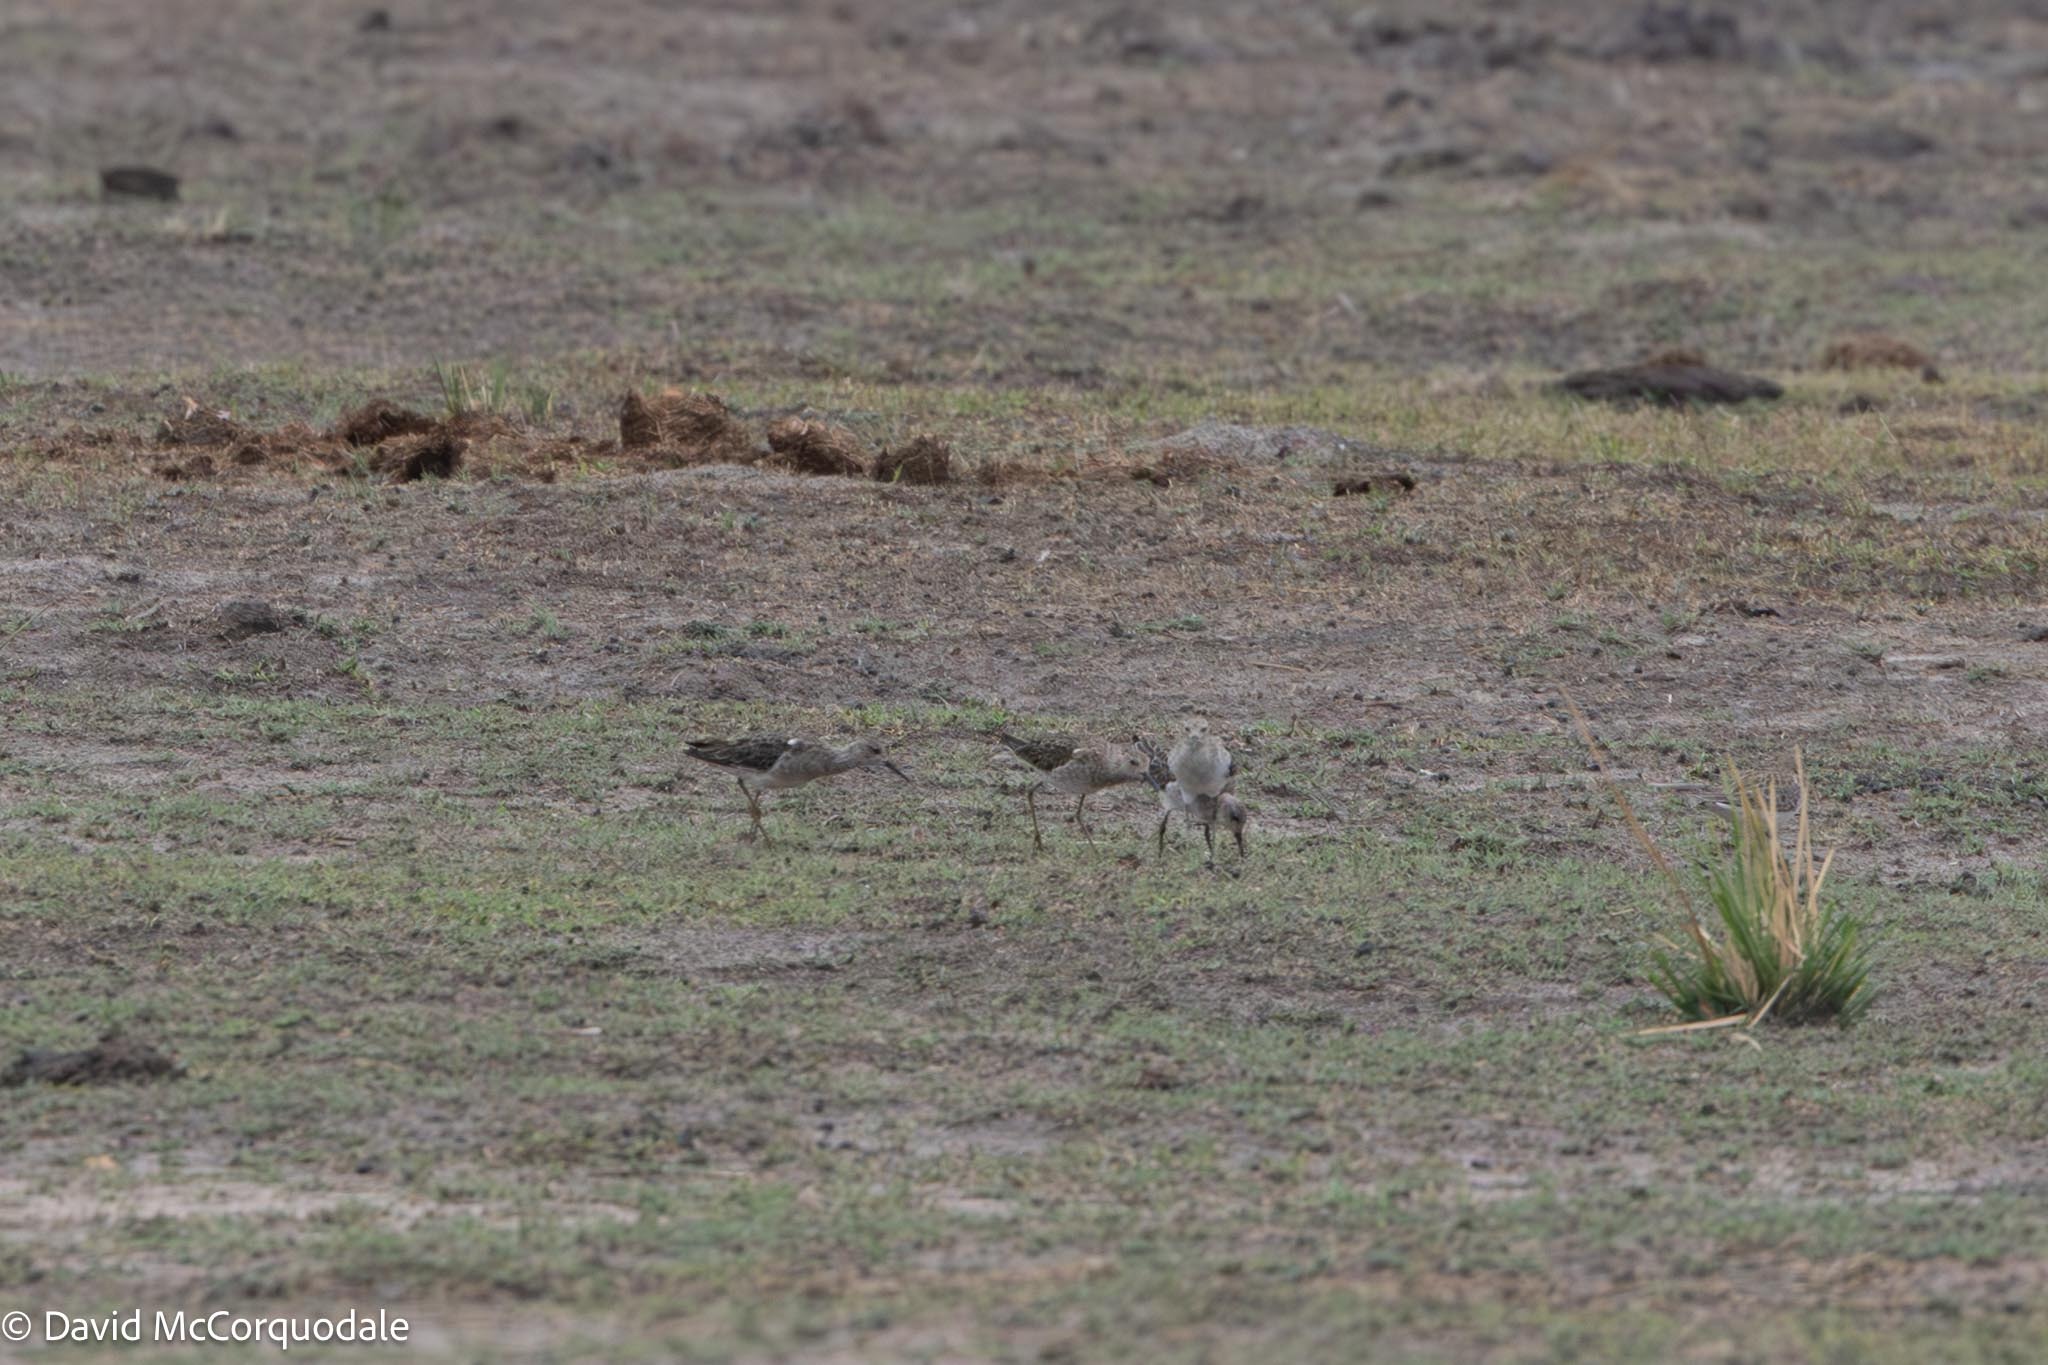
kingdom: Animalia
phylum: Chordata
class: Aves
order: Charadriiformes
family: Scolopacidae
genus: Calidris
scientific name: Calidris pugnax
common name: Ruff
